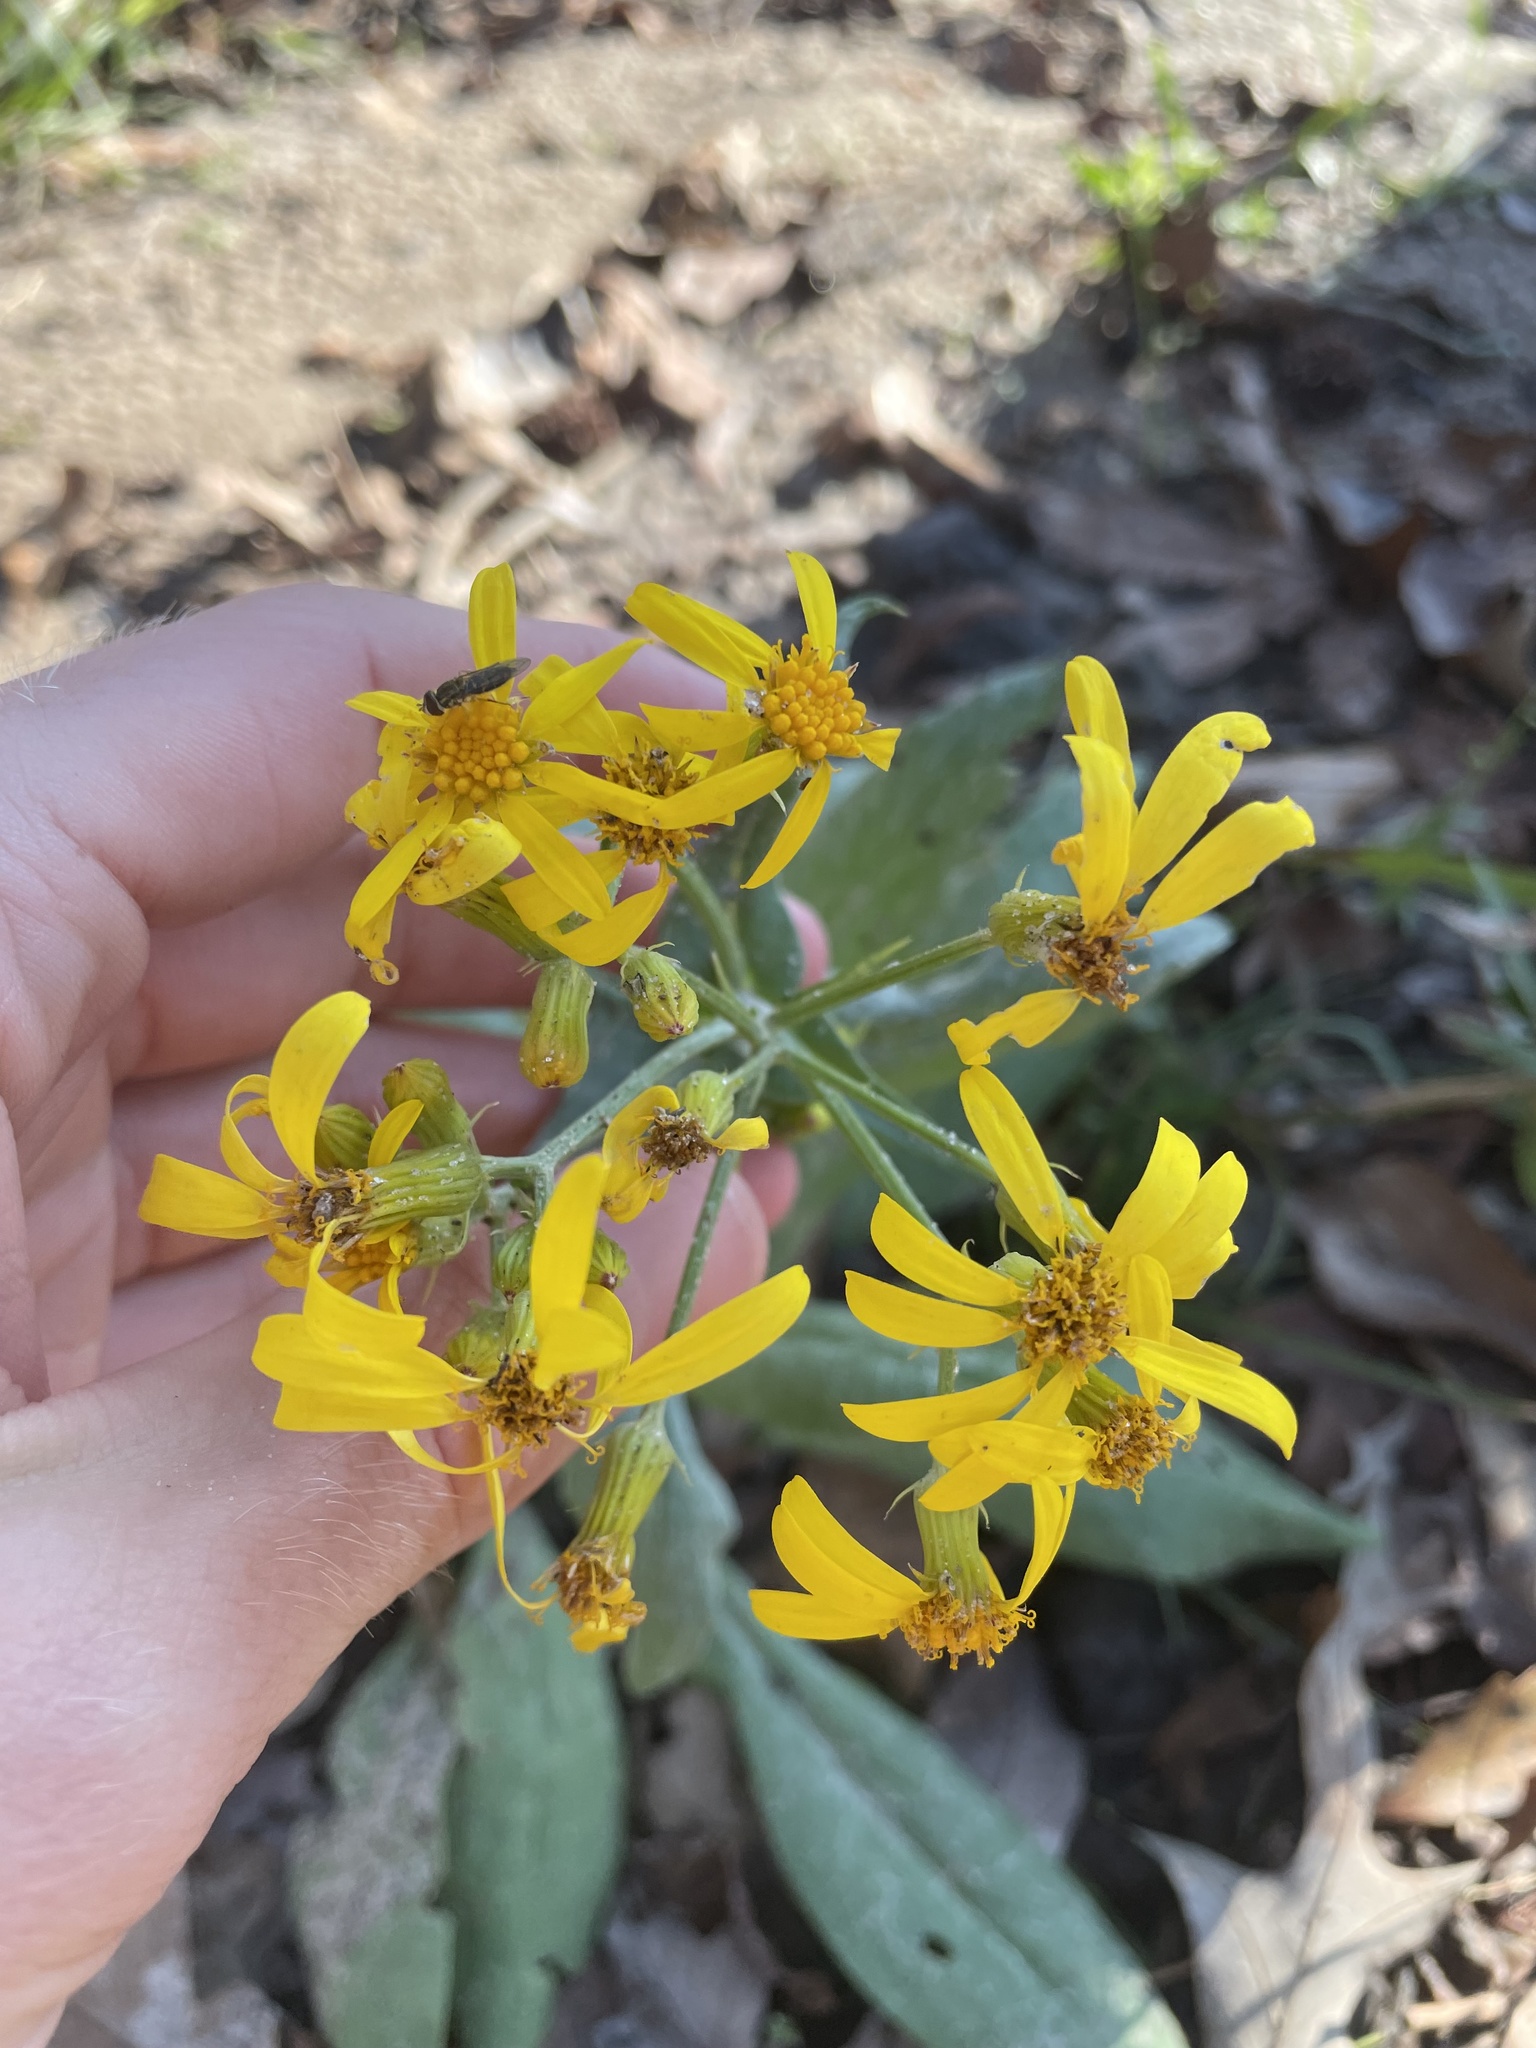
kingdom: Plantae
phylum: Tracheophyta
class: Magnoliopsida
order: Asterales
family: Asteraceae
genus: Senecio
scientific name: Senecio ampullaceus
